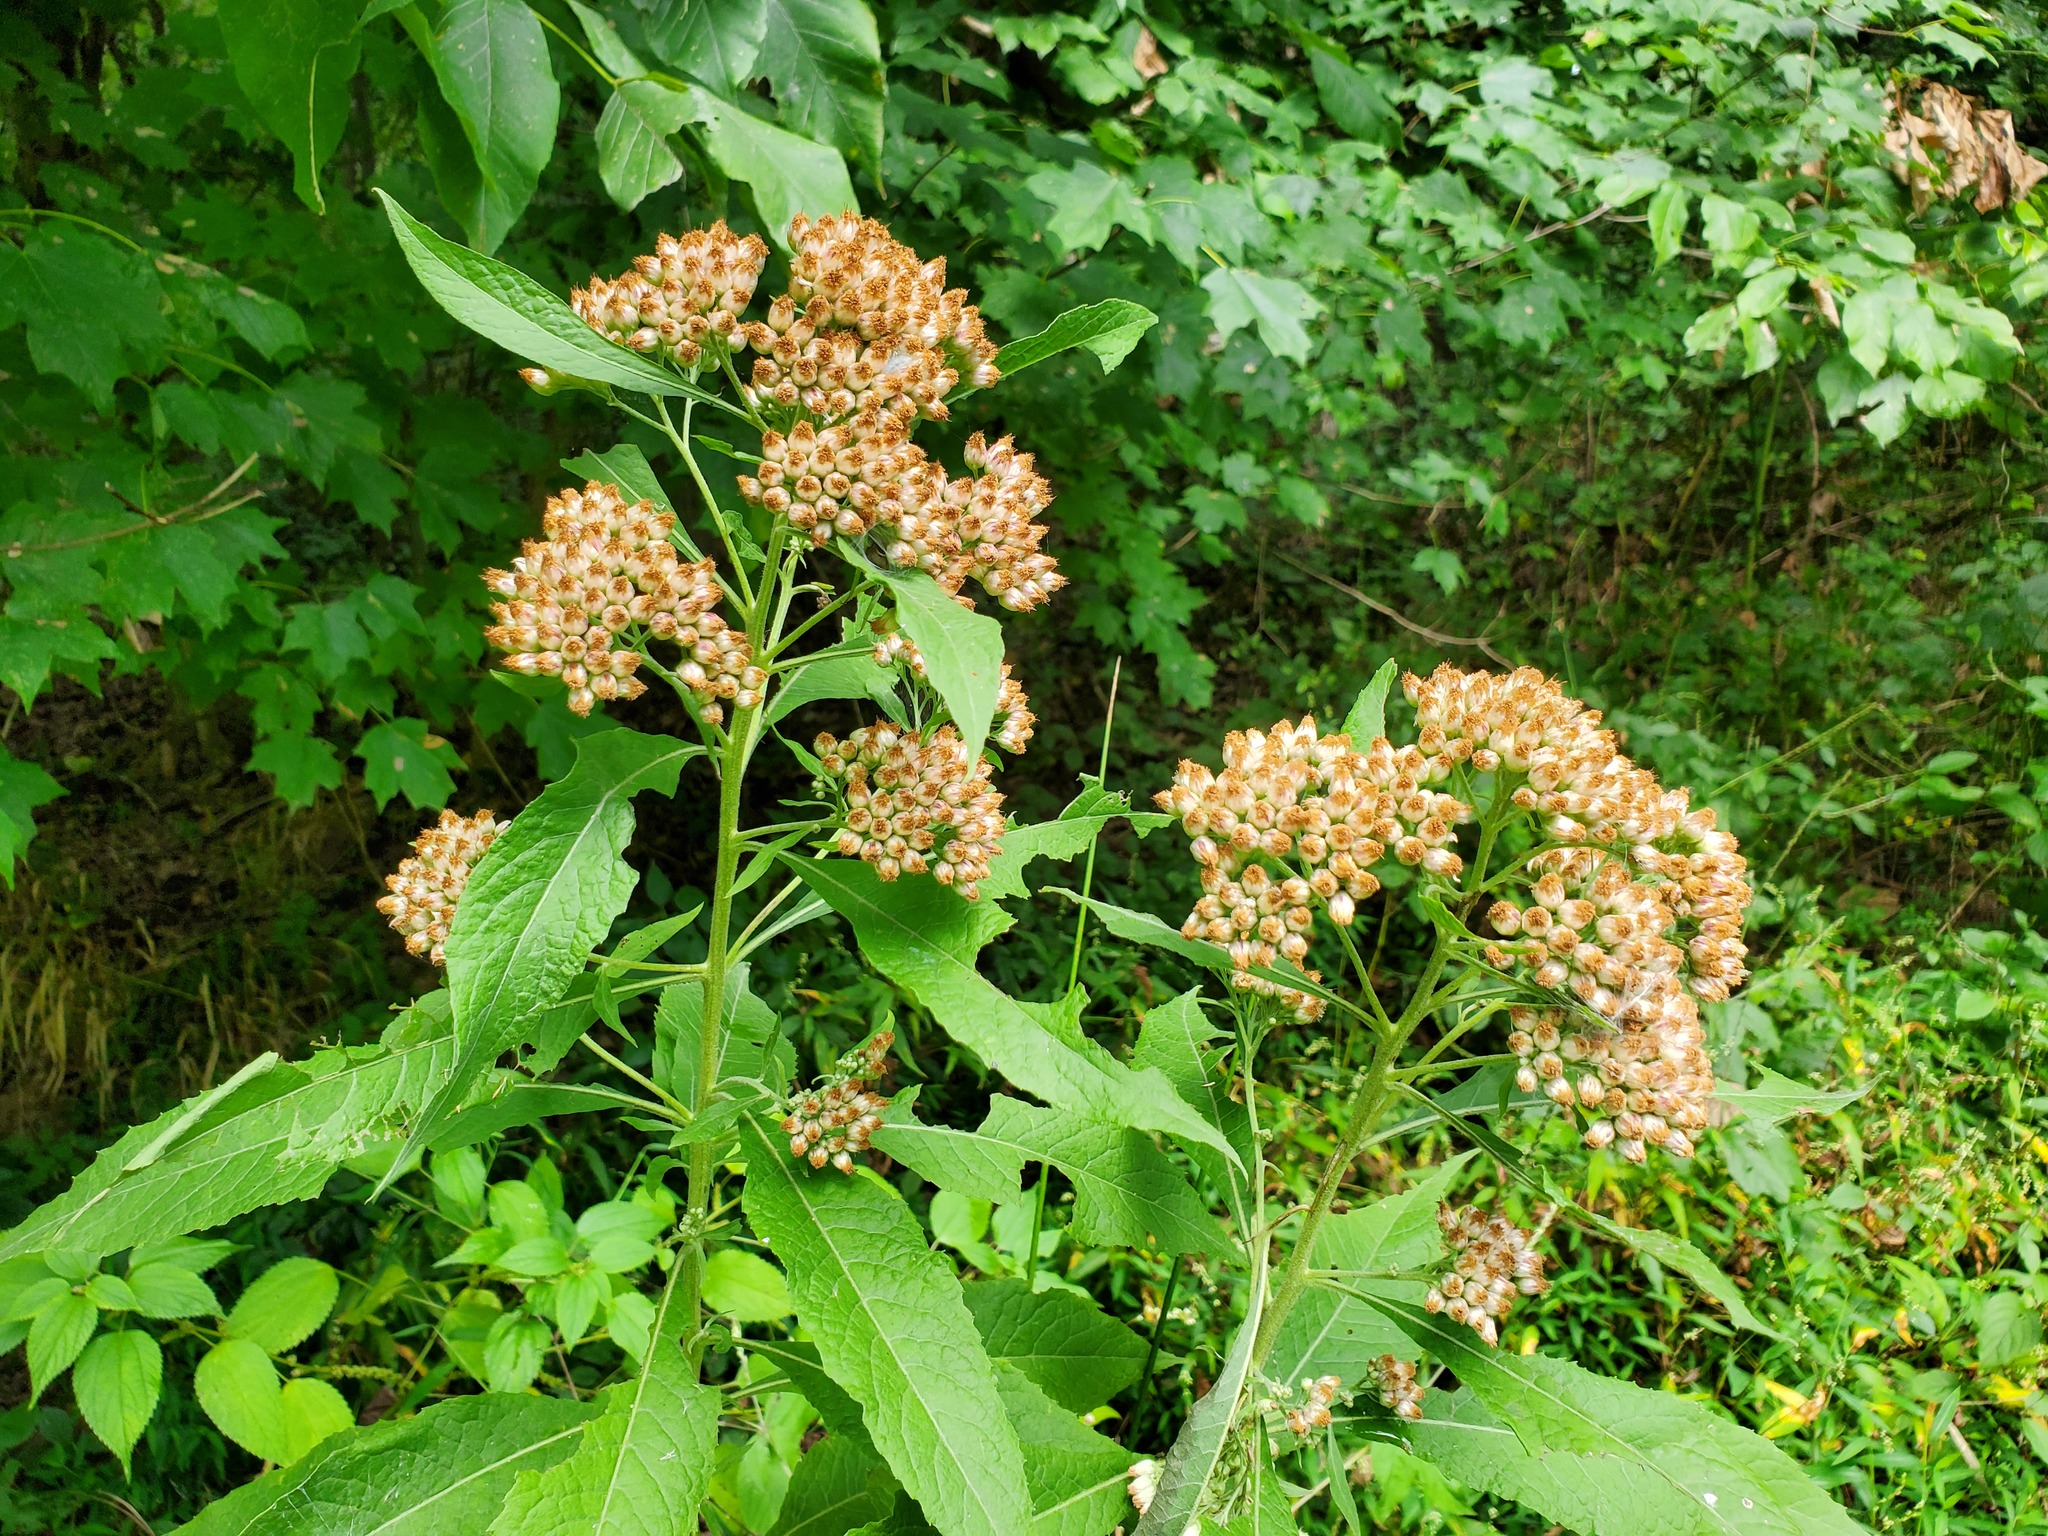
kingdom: Plantae
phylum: Tracheophyta
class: Magnoliopsida
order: Asterales
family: Asteraceae
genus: Pluchea
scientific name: Pluchea camphorata
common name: Camphor pluchea
